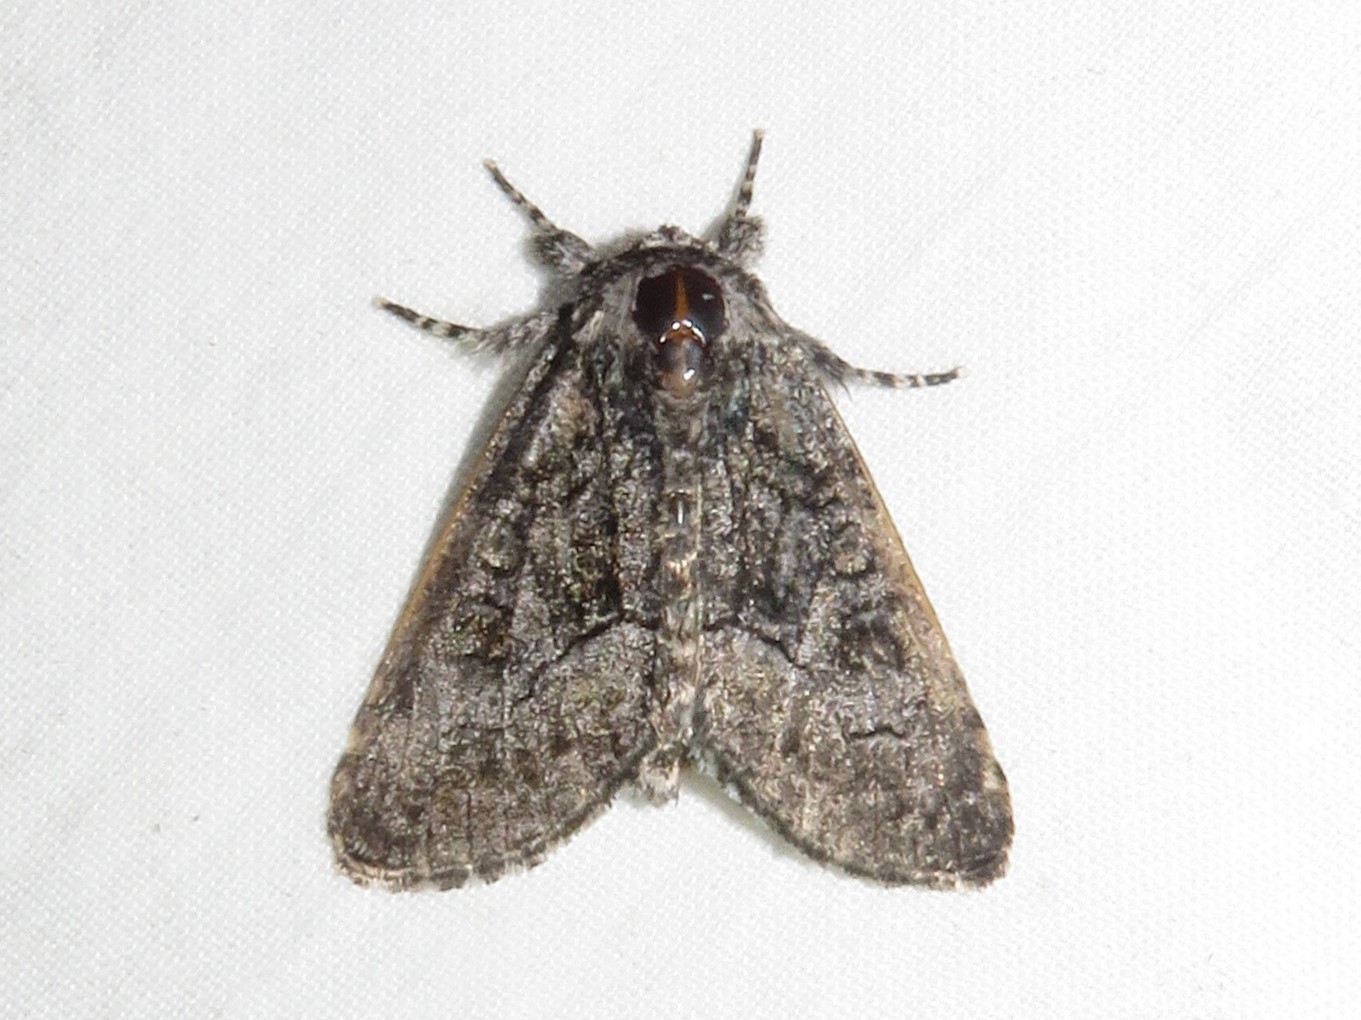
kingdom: Animalia
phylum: Arthropoda
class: Insecta
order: Lepidoptera
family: Noctuidae
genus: Raphia
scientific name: Raphia frater
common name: Brother
